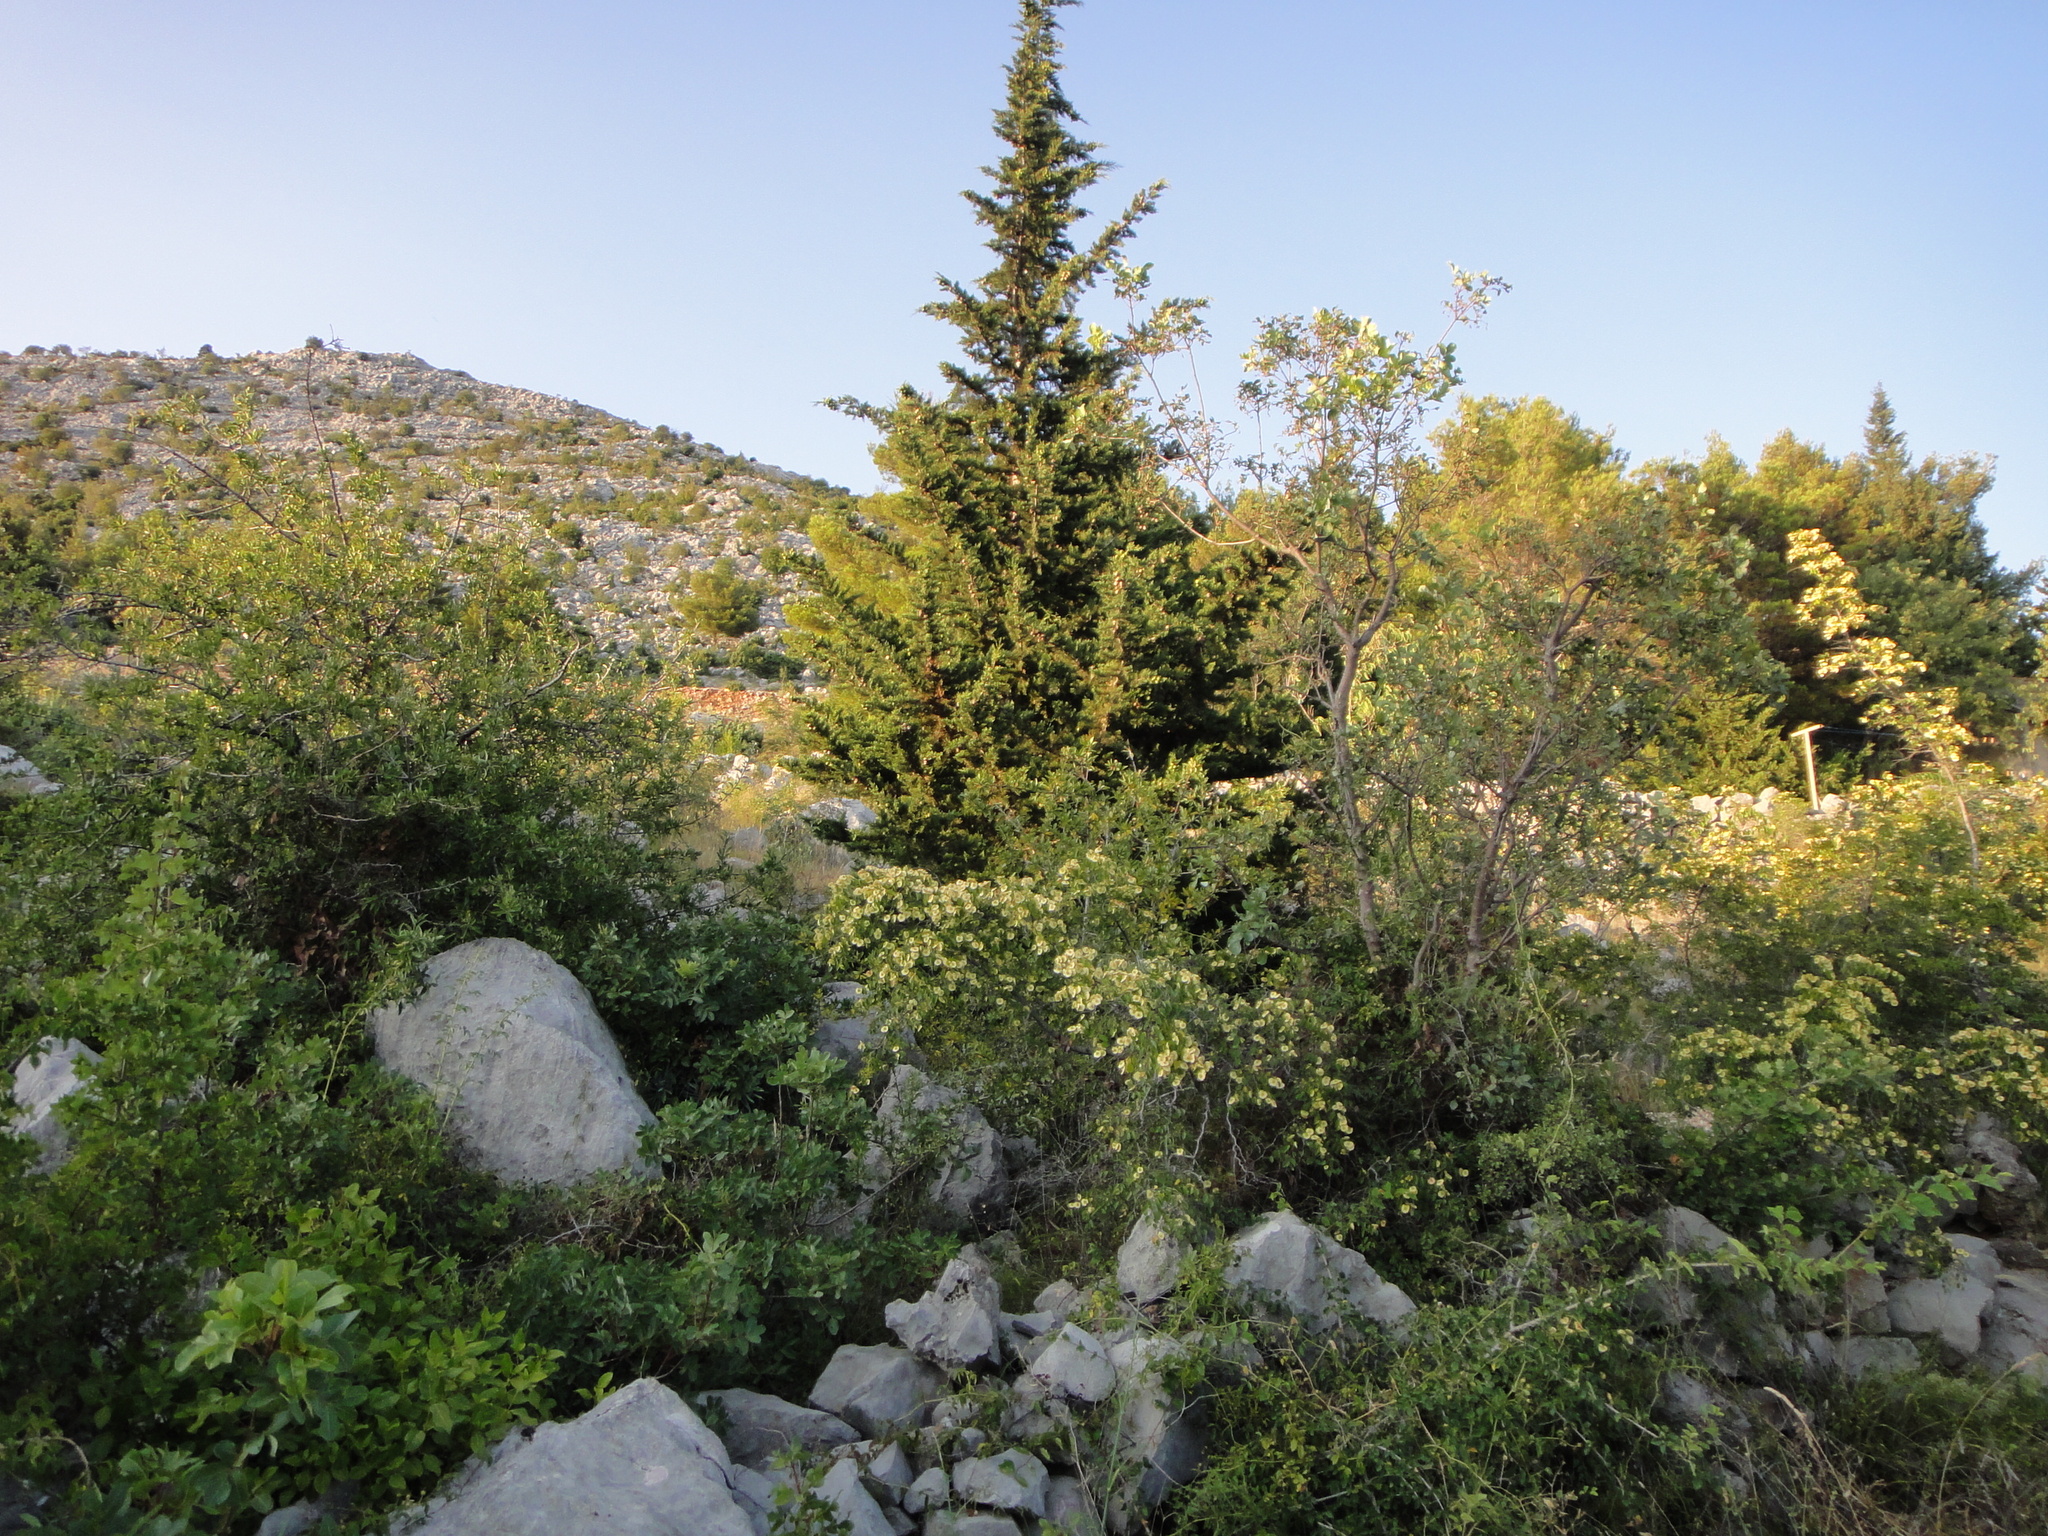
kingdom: Plantae
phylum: Tracheophyta
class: Pinopsida
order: Pinales
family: Cupressaceae
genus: Cupressus
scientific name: Cupressus sempervirens
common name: Italian cypress
